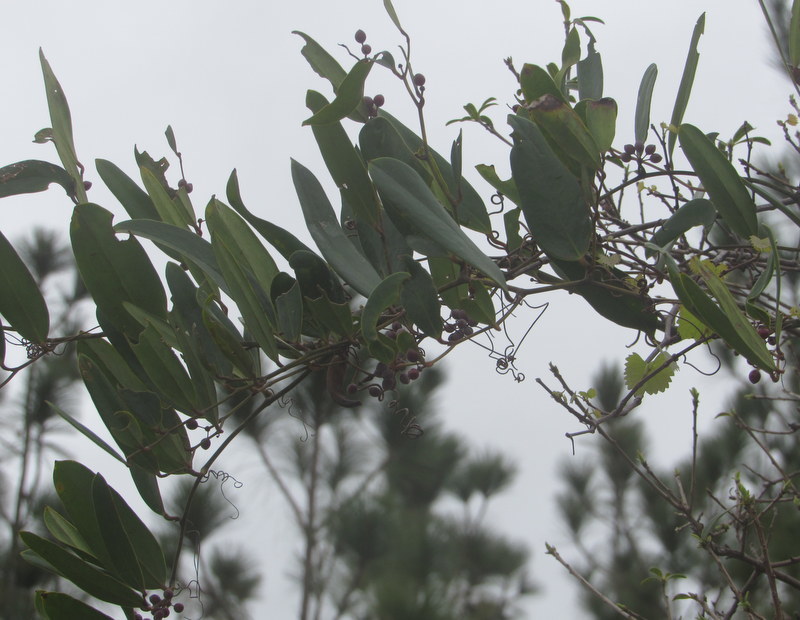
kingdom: Plantae
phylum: Tracheophyta
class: Liliopsida
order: Liliales
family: Smilacaceae
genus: Smilax
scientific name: Smilax laurifolia
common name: Bamboovine
